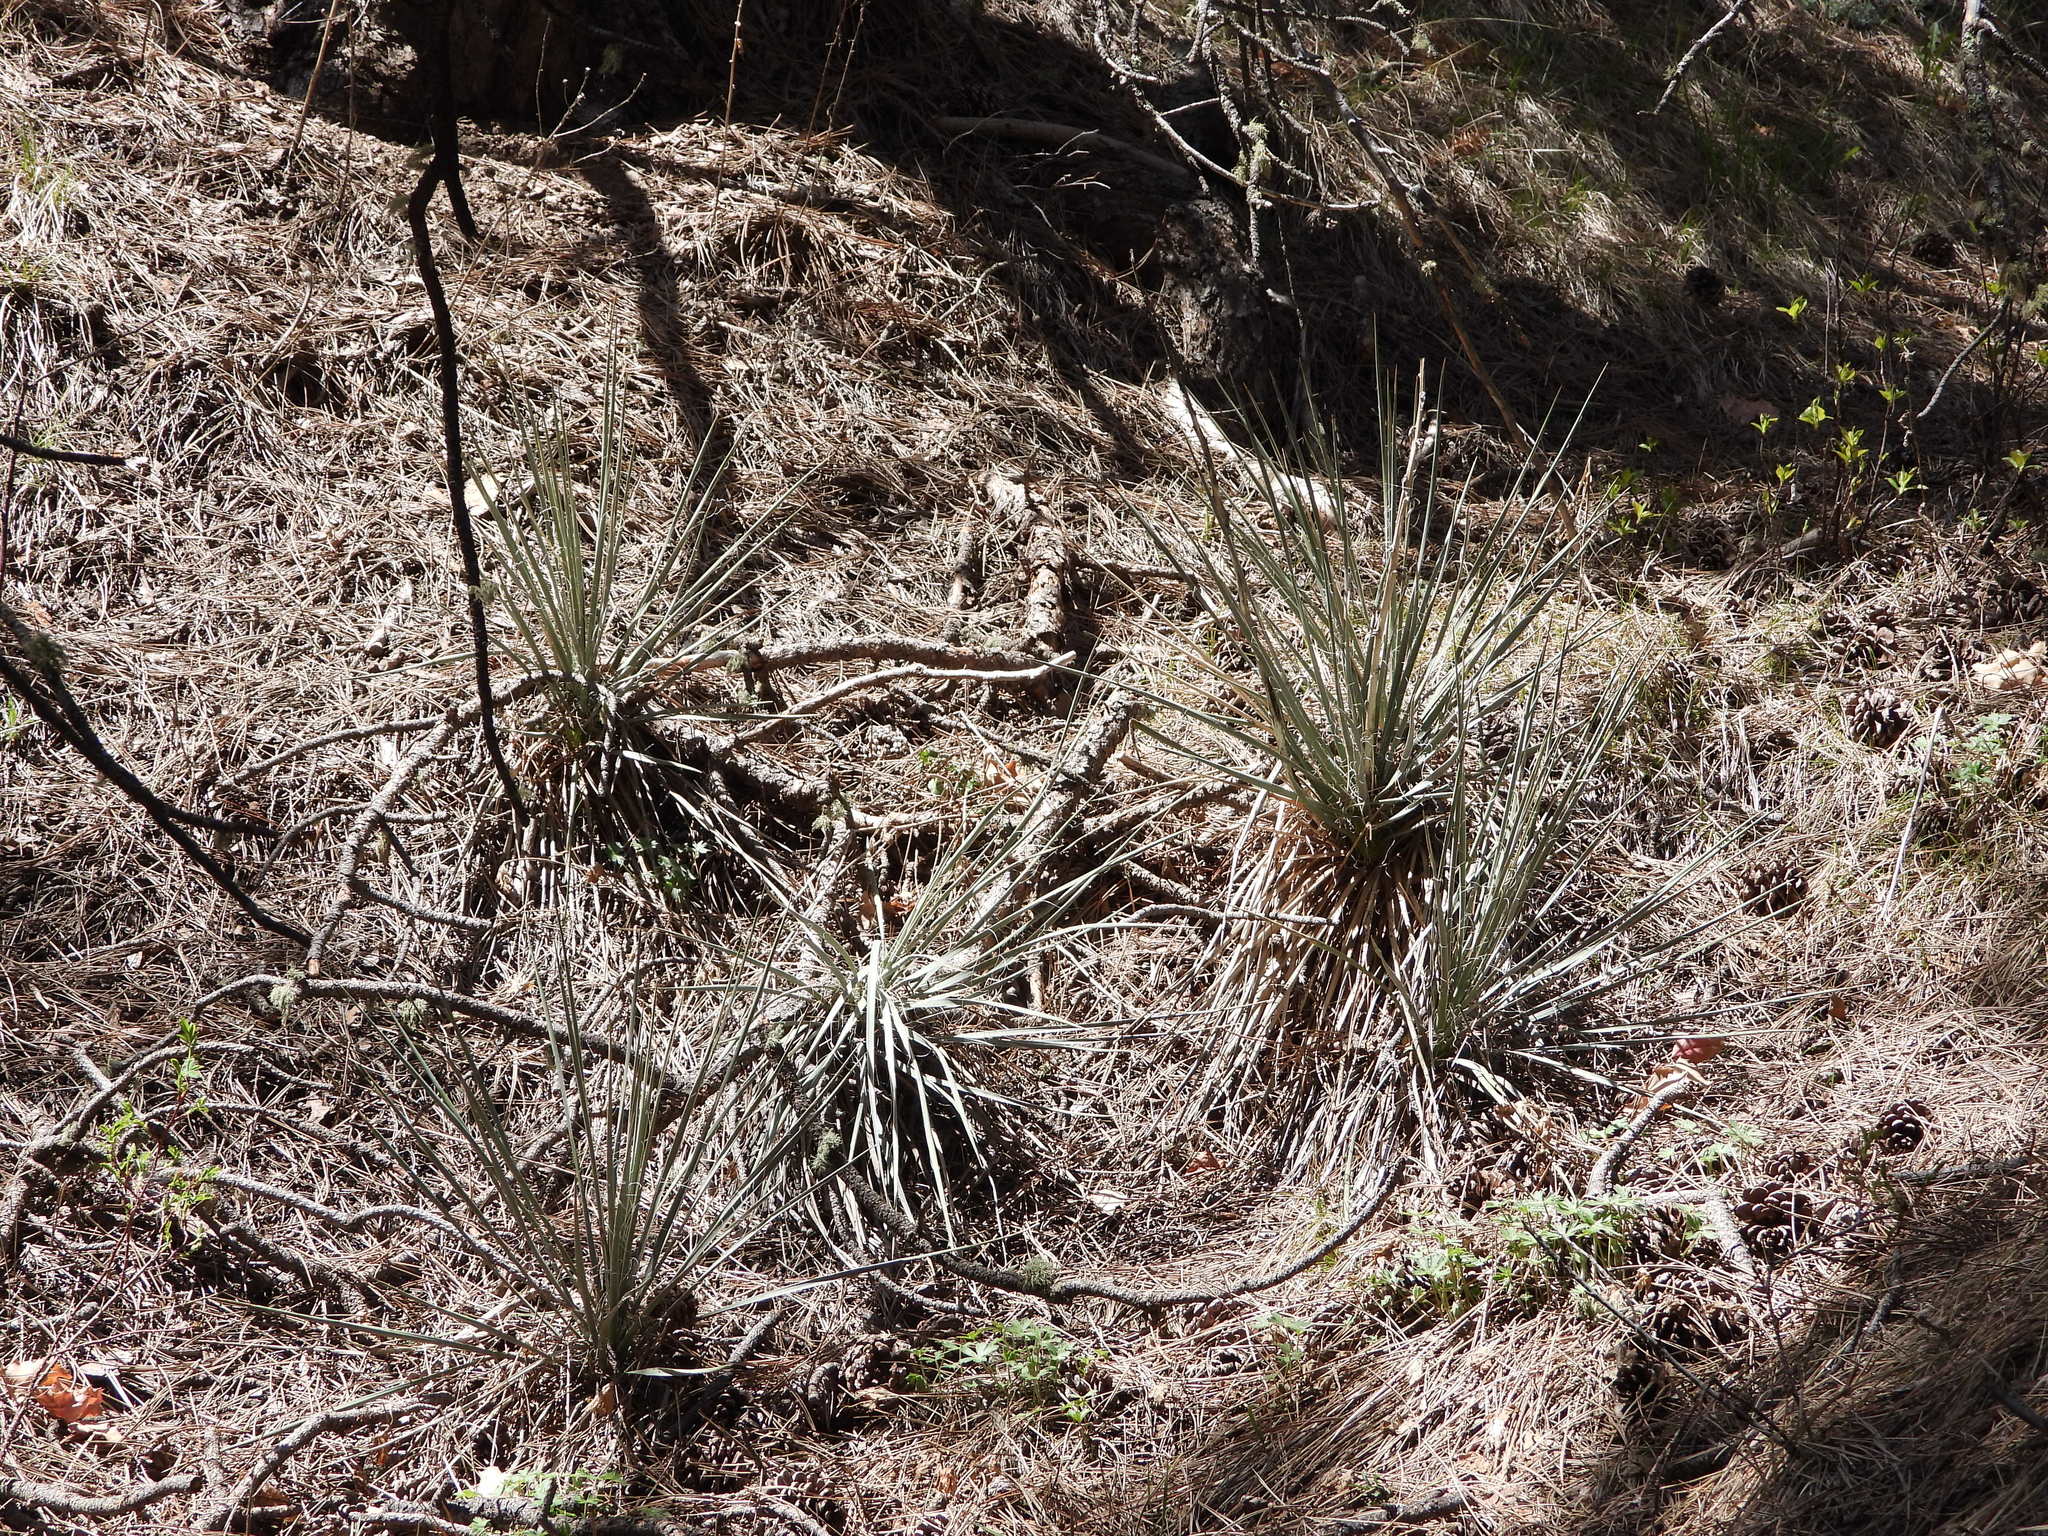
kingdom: Plantae
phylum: Tracheophyta
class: Liliopsida
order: Asparagales
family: Asparagaceae
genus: Yucca
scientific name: Yucca glauca
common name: Great plains yucca
